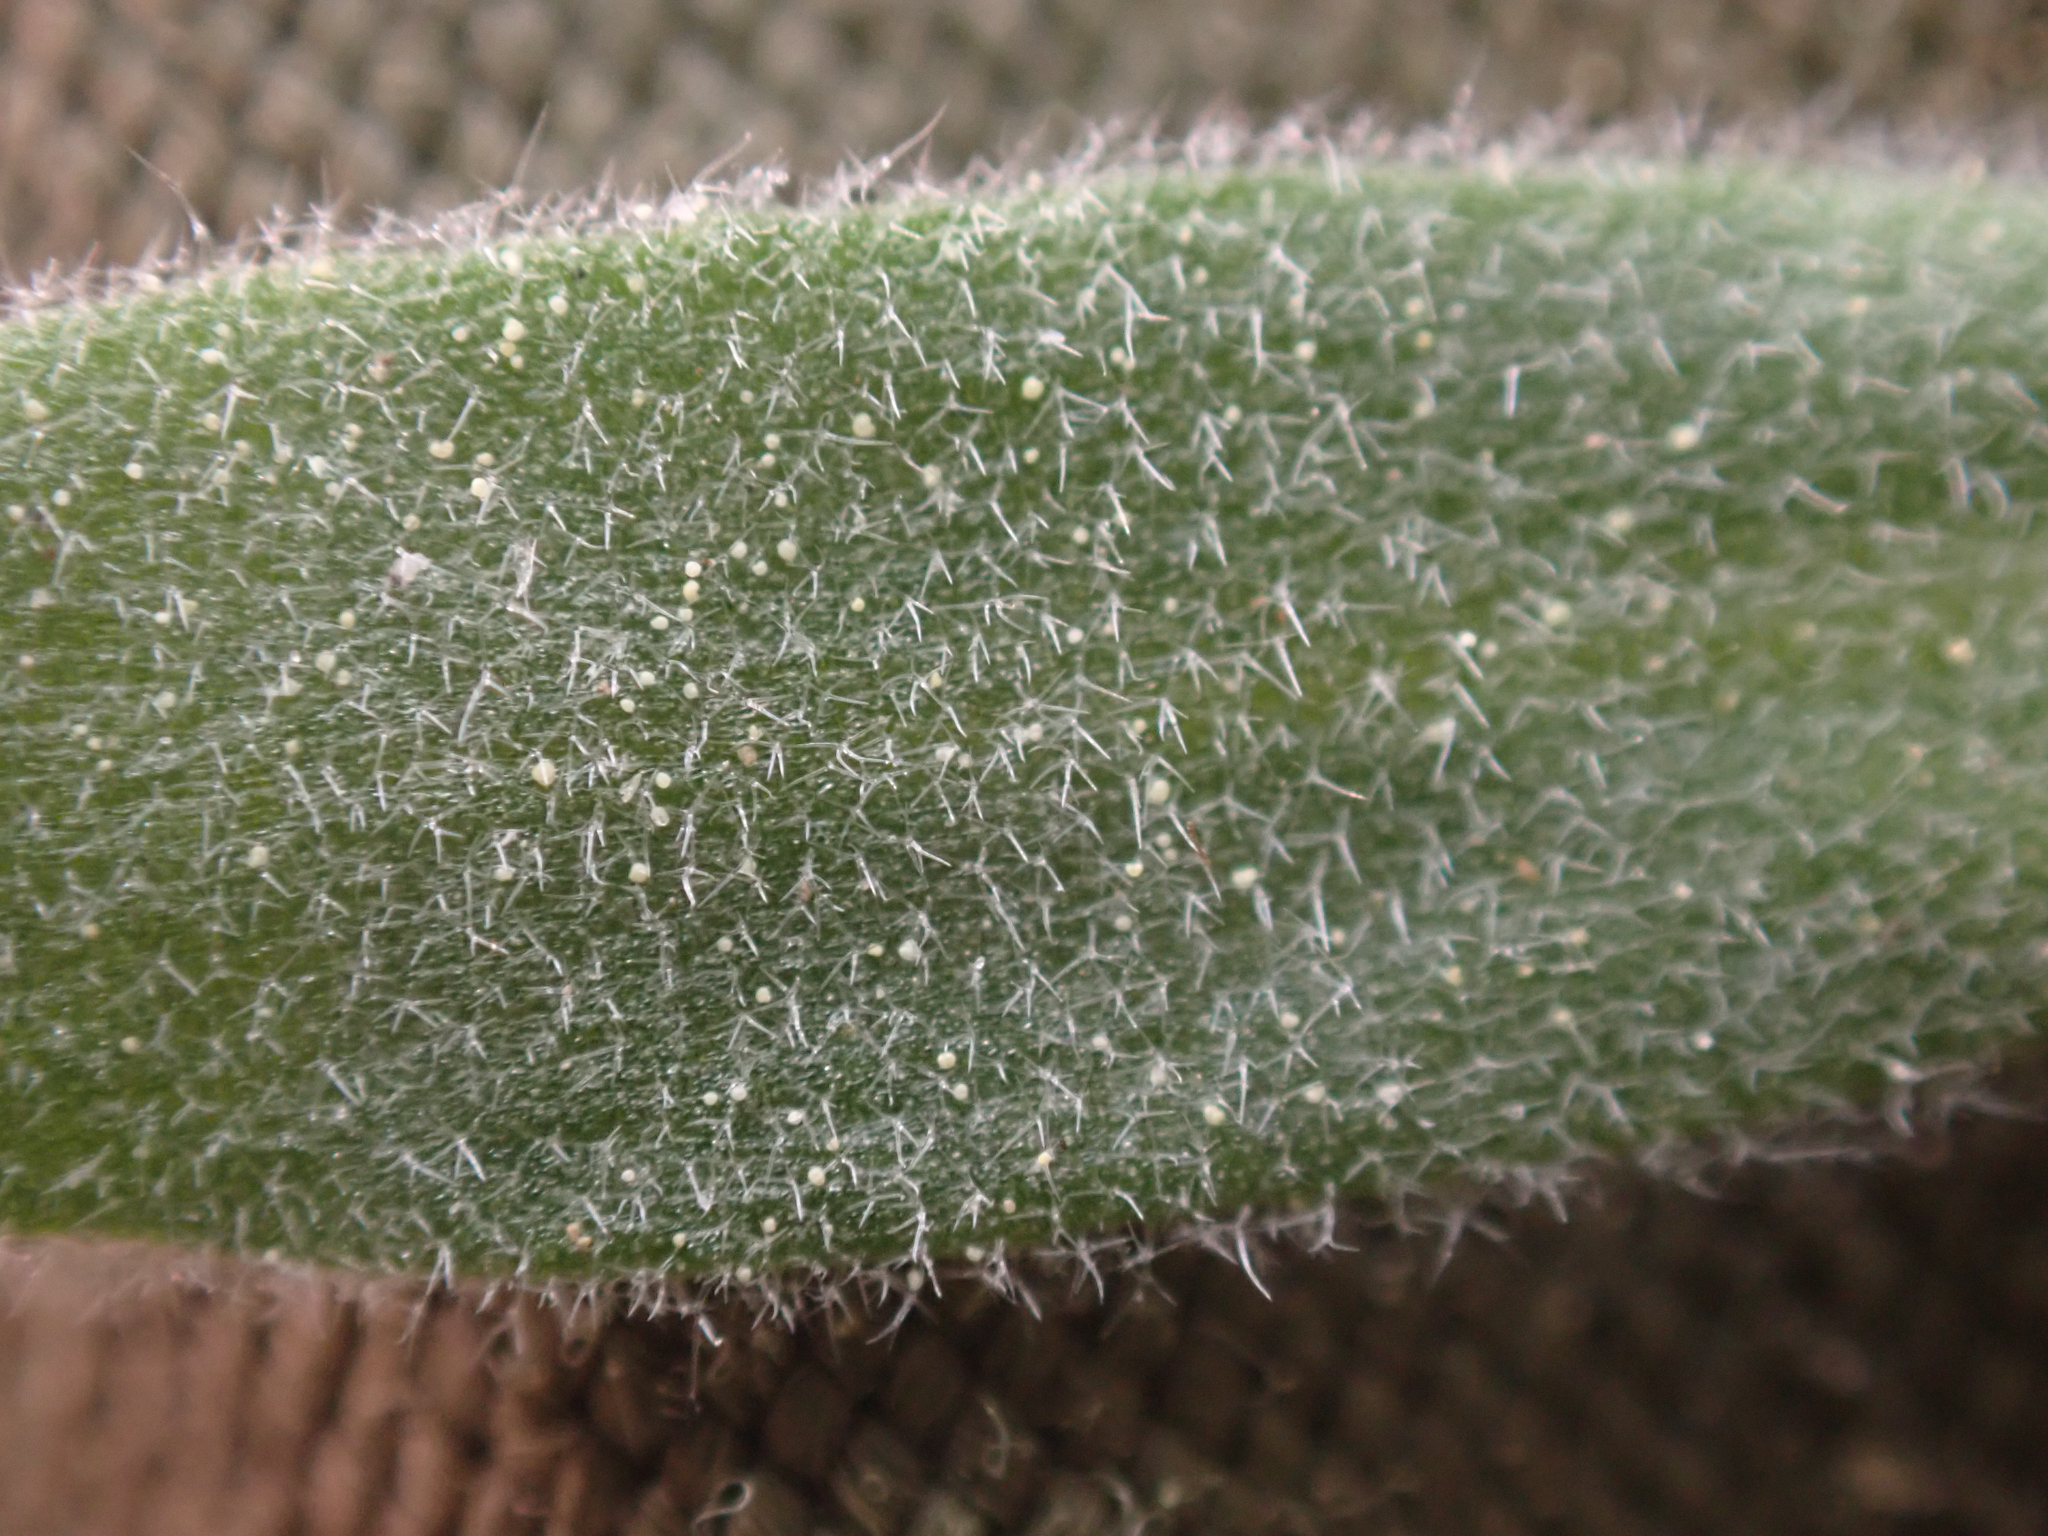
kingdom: Plantae
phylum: Tracheophyta
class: Magnoliopsida
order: Brassicales
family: Brassicaceae
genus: Draba
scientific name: Draba breweri
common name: Cushion draba
